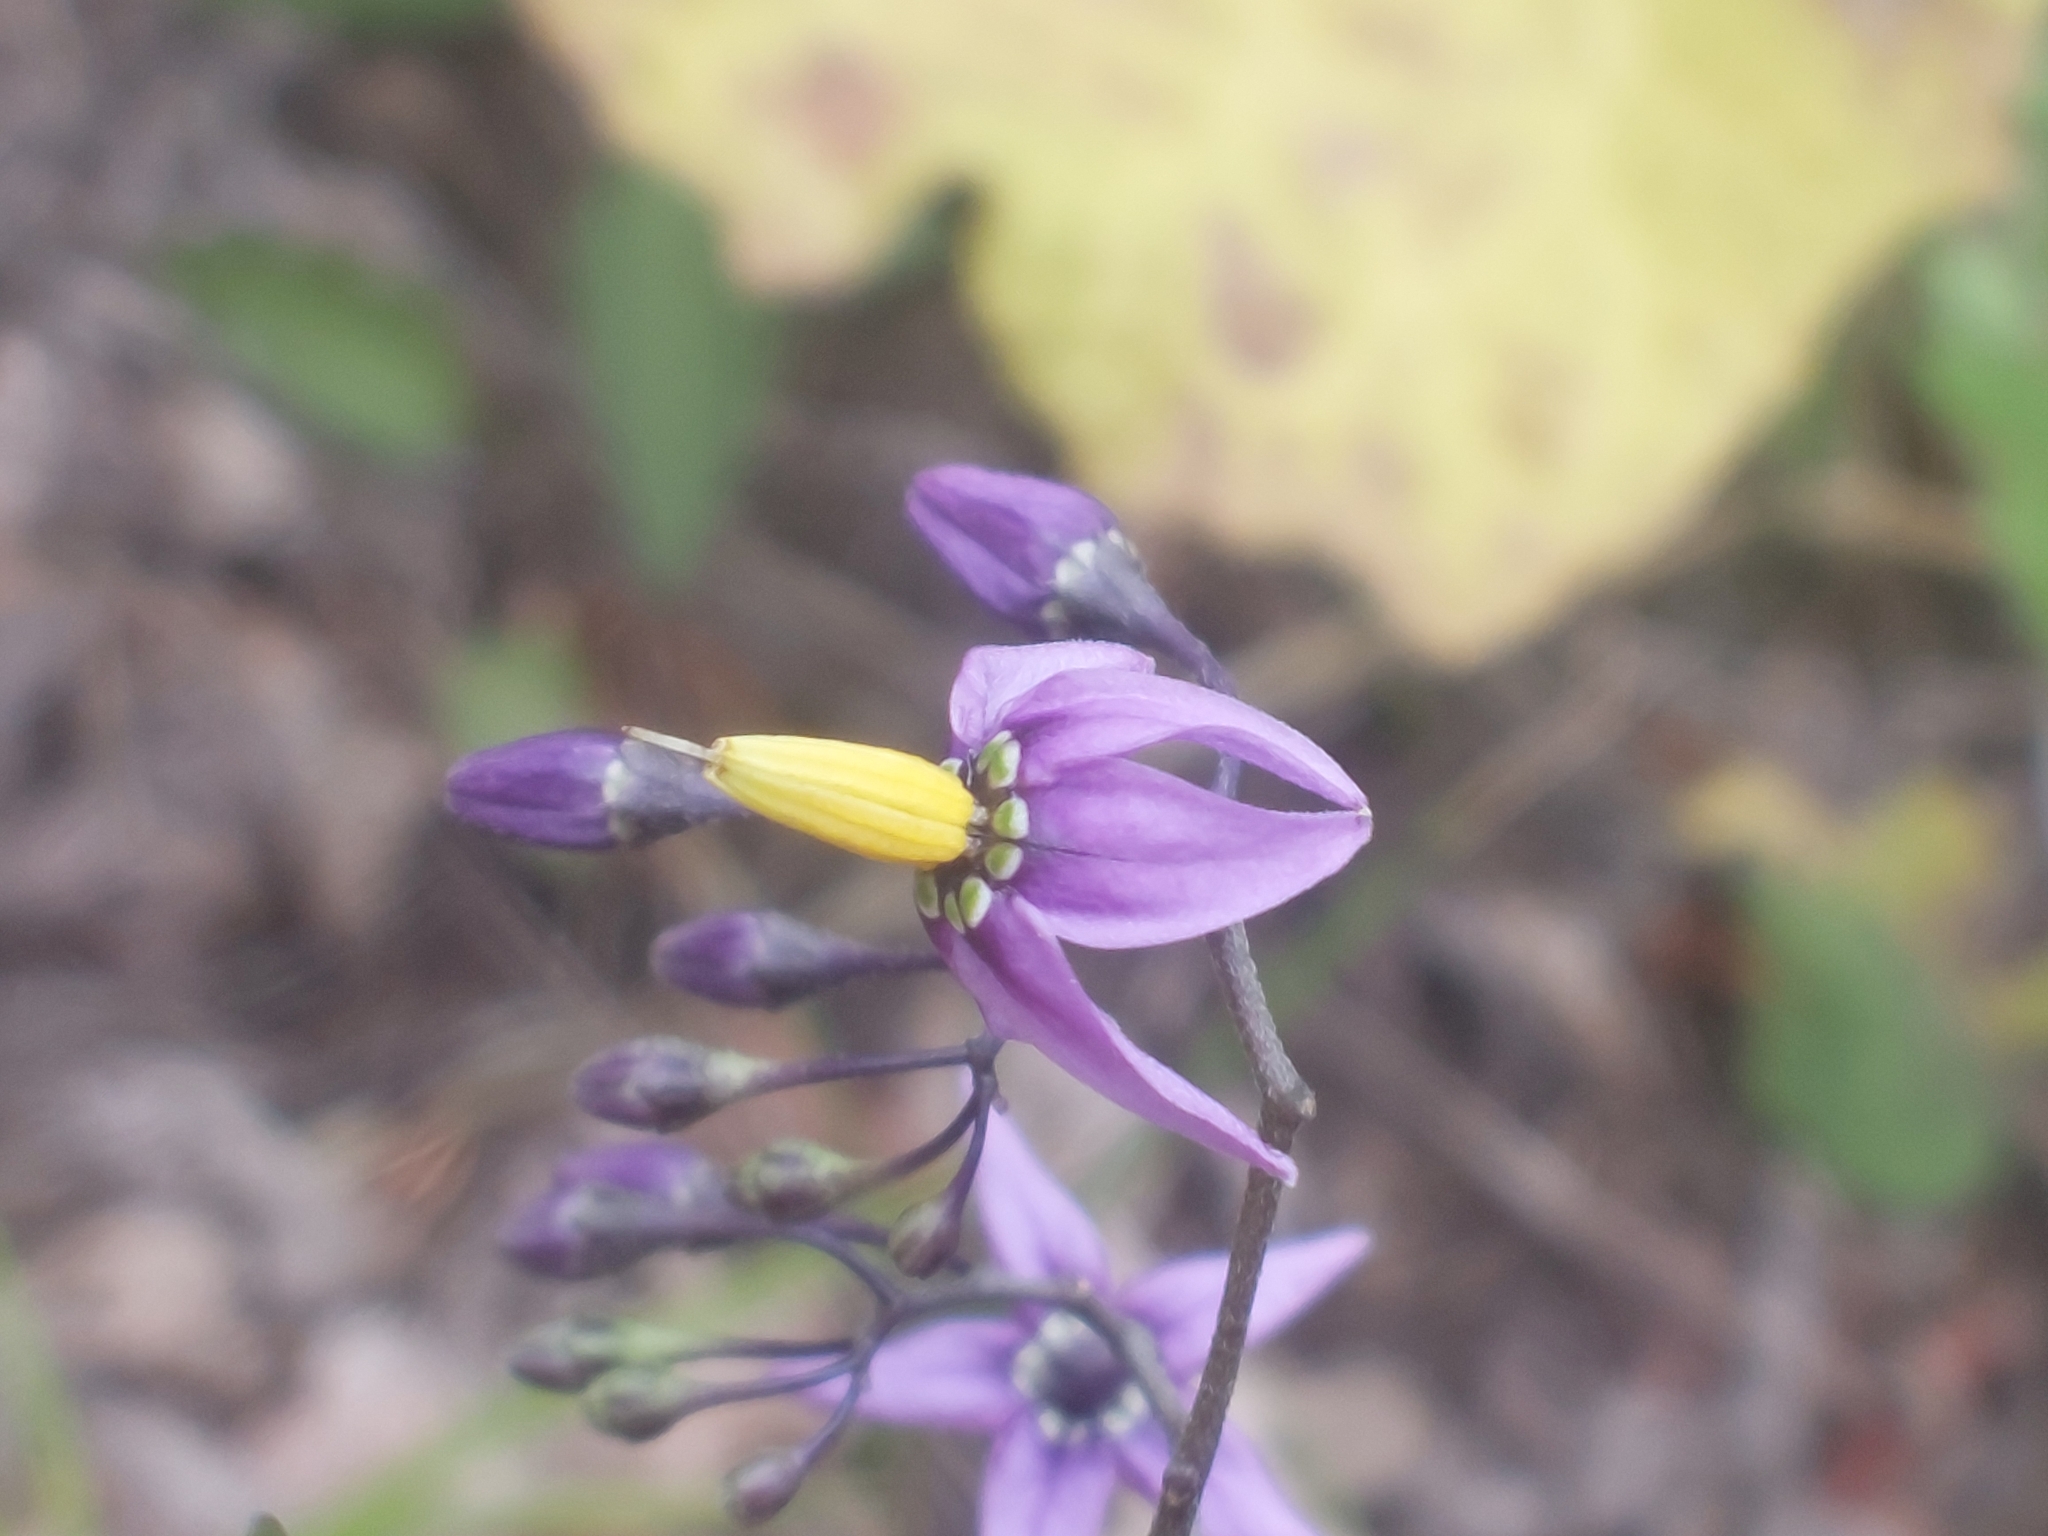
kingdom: Plantae
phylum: Tracheophyta
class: Magnoliopsida
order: Solanales
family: Solanaceae
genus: Solanum
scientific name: Solanum dulcamara
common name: Climbing nightshade
